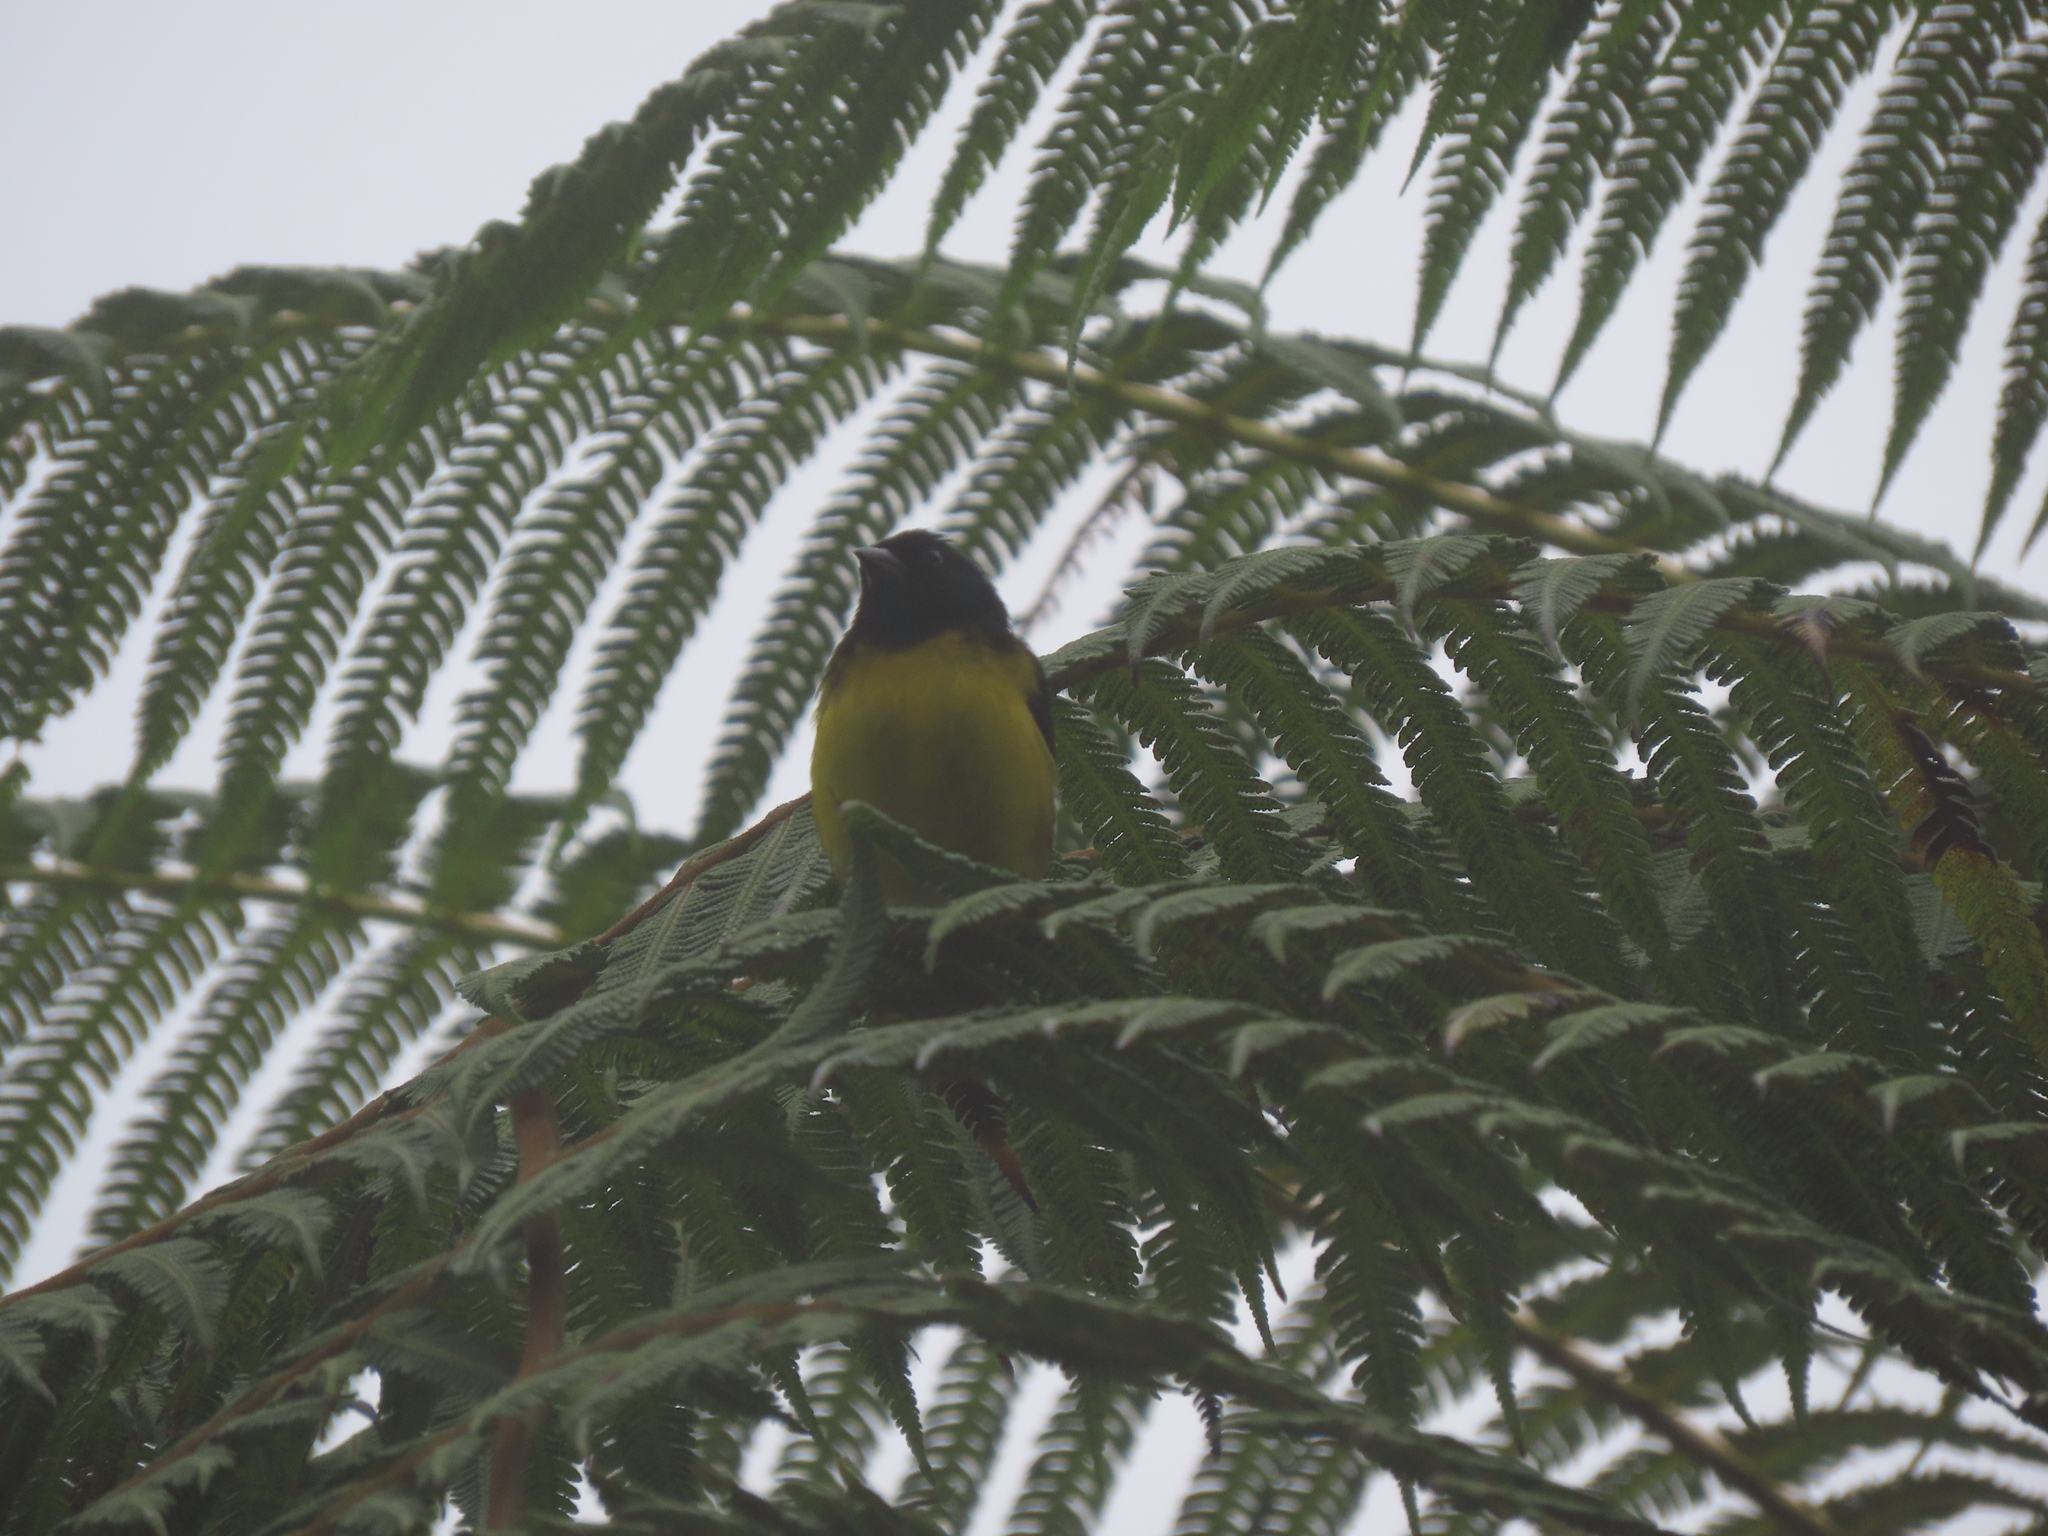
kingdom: Animalia
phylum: Chordata
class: Aves
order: Passeriformes
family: Fringillidae
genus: Spinus
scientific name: Spinus xanthogastrus
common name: Yellow-bellied siskin
